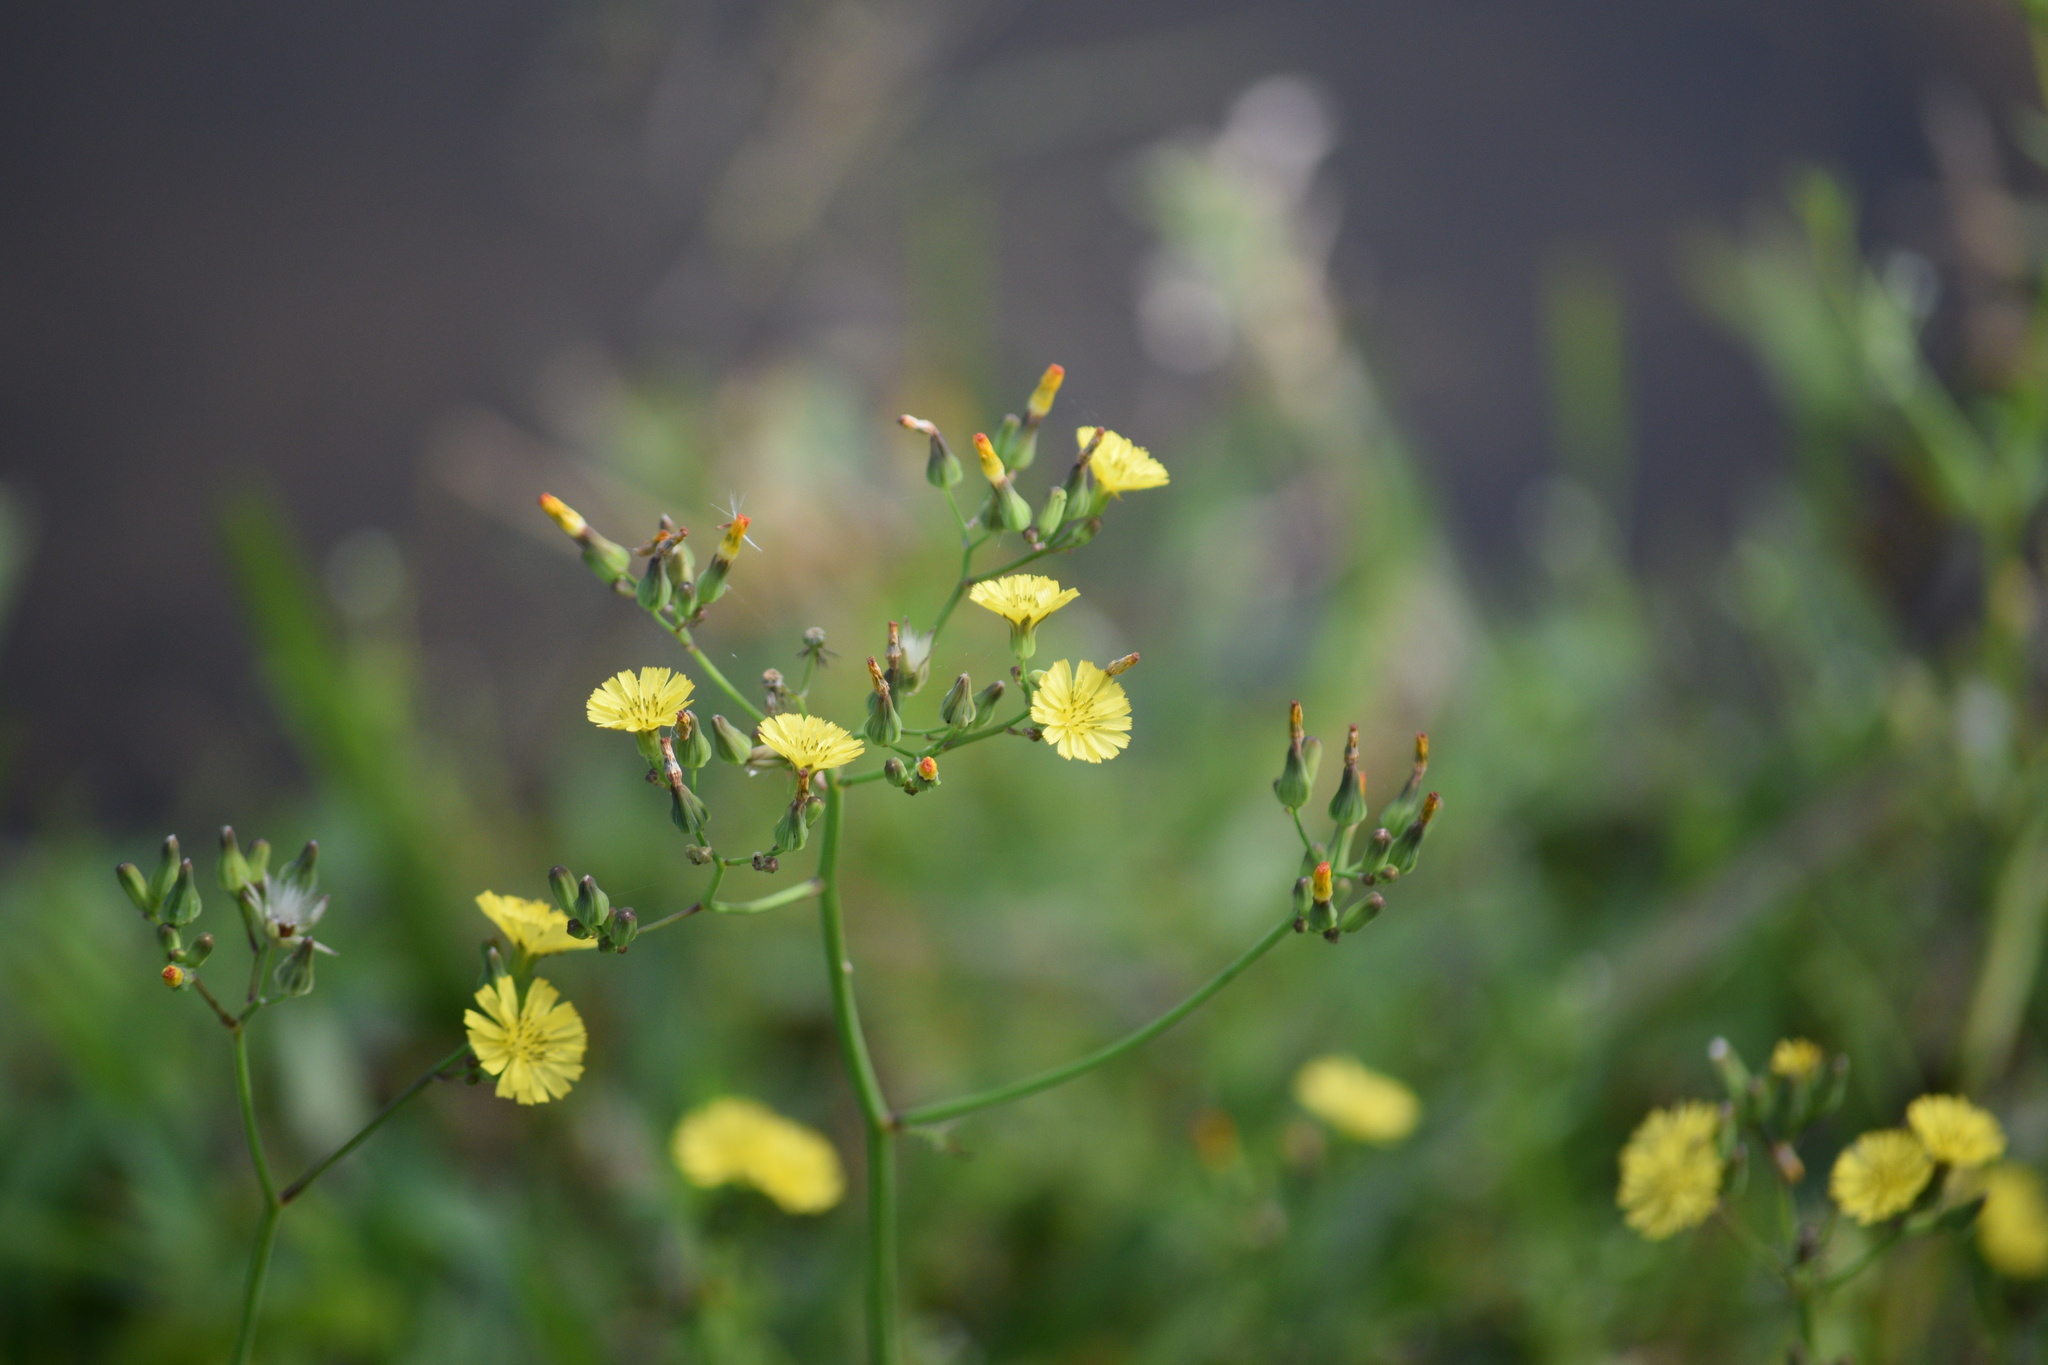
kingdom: Plantae
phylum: Tracheophyta
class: Magnoliopsida
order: Asterales
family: Asteraceae
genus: Youngia
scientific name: Youngia japonica
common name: Oriental false hawksbeard
